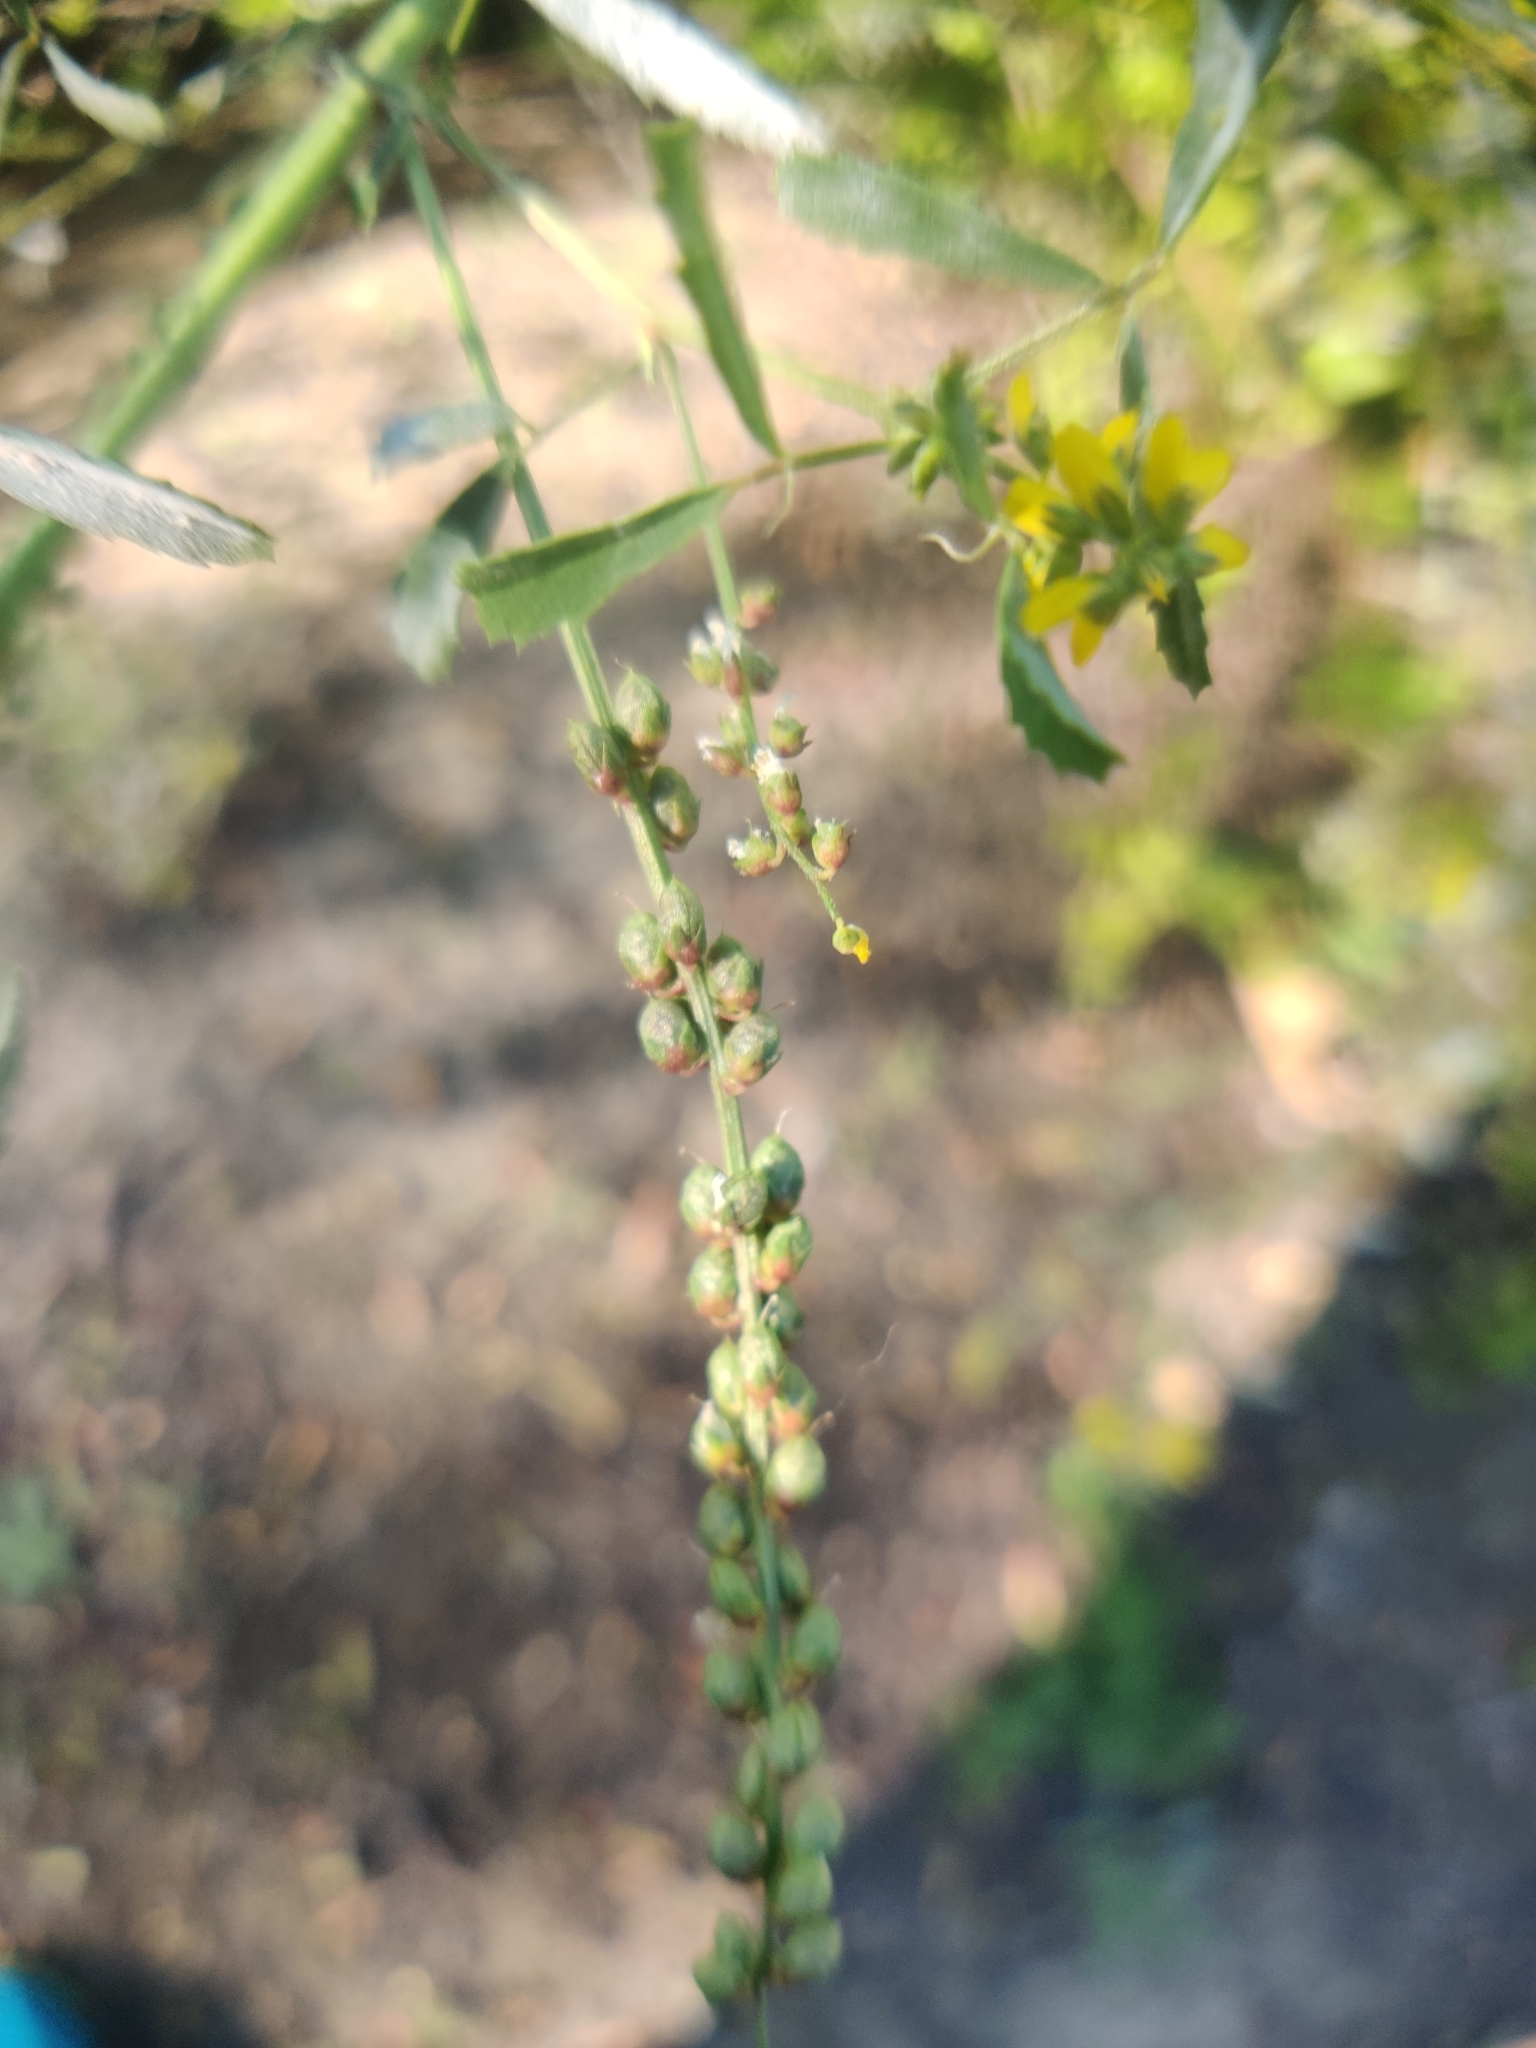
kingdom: Plantae
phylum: Tracheophyta
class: Magnoliopsida
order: Fabales
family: Fabaceae
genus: Melilotus
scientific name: Melilotus indicus
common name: Small melilot
